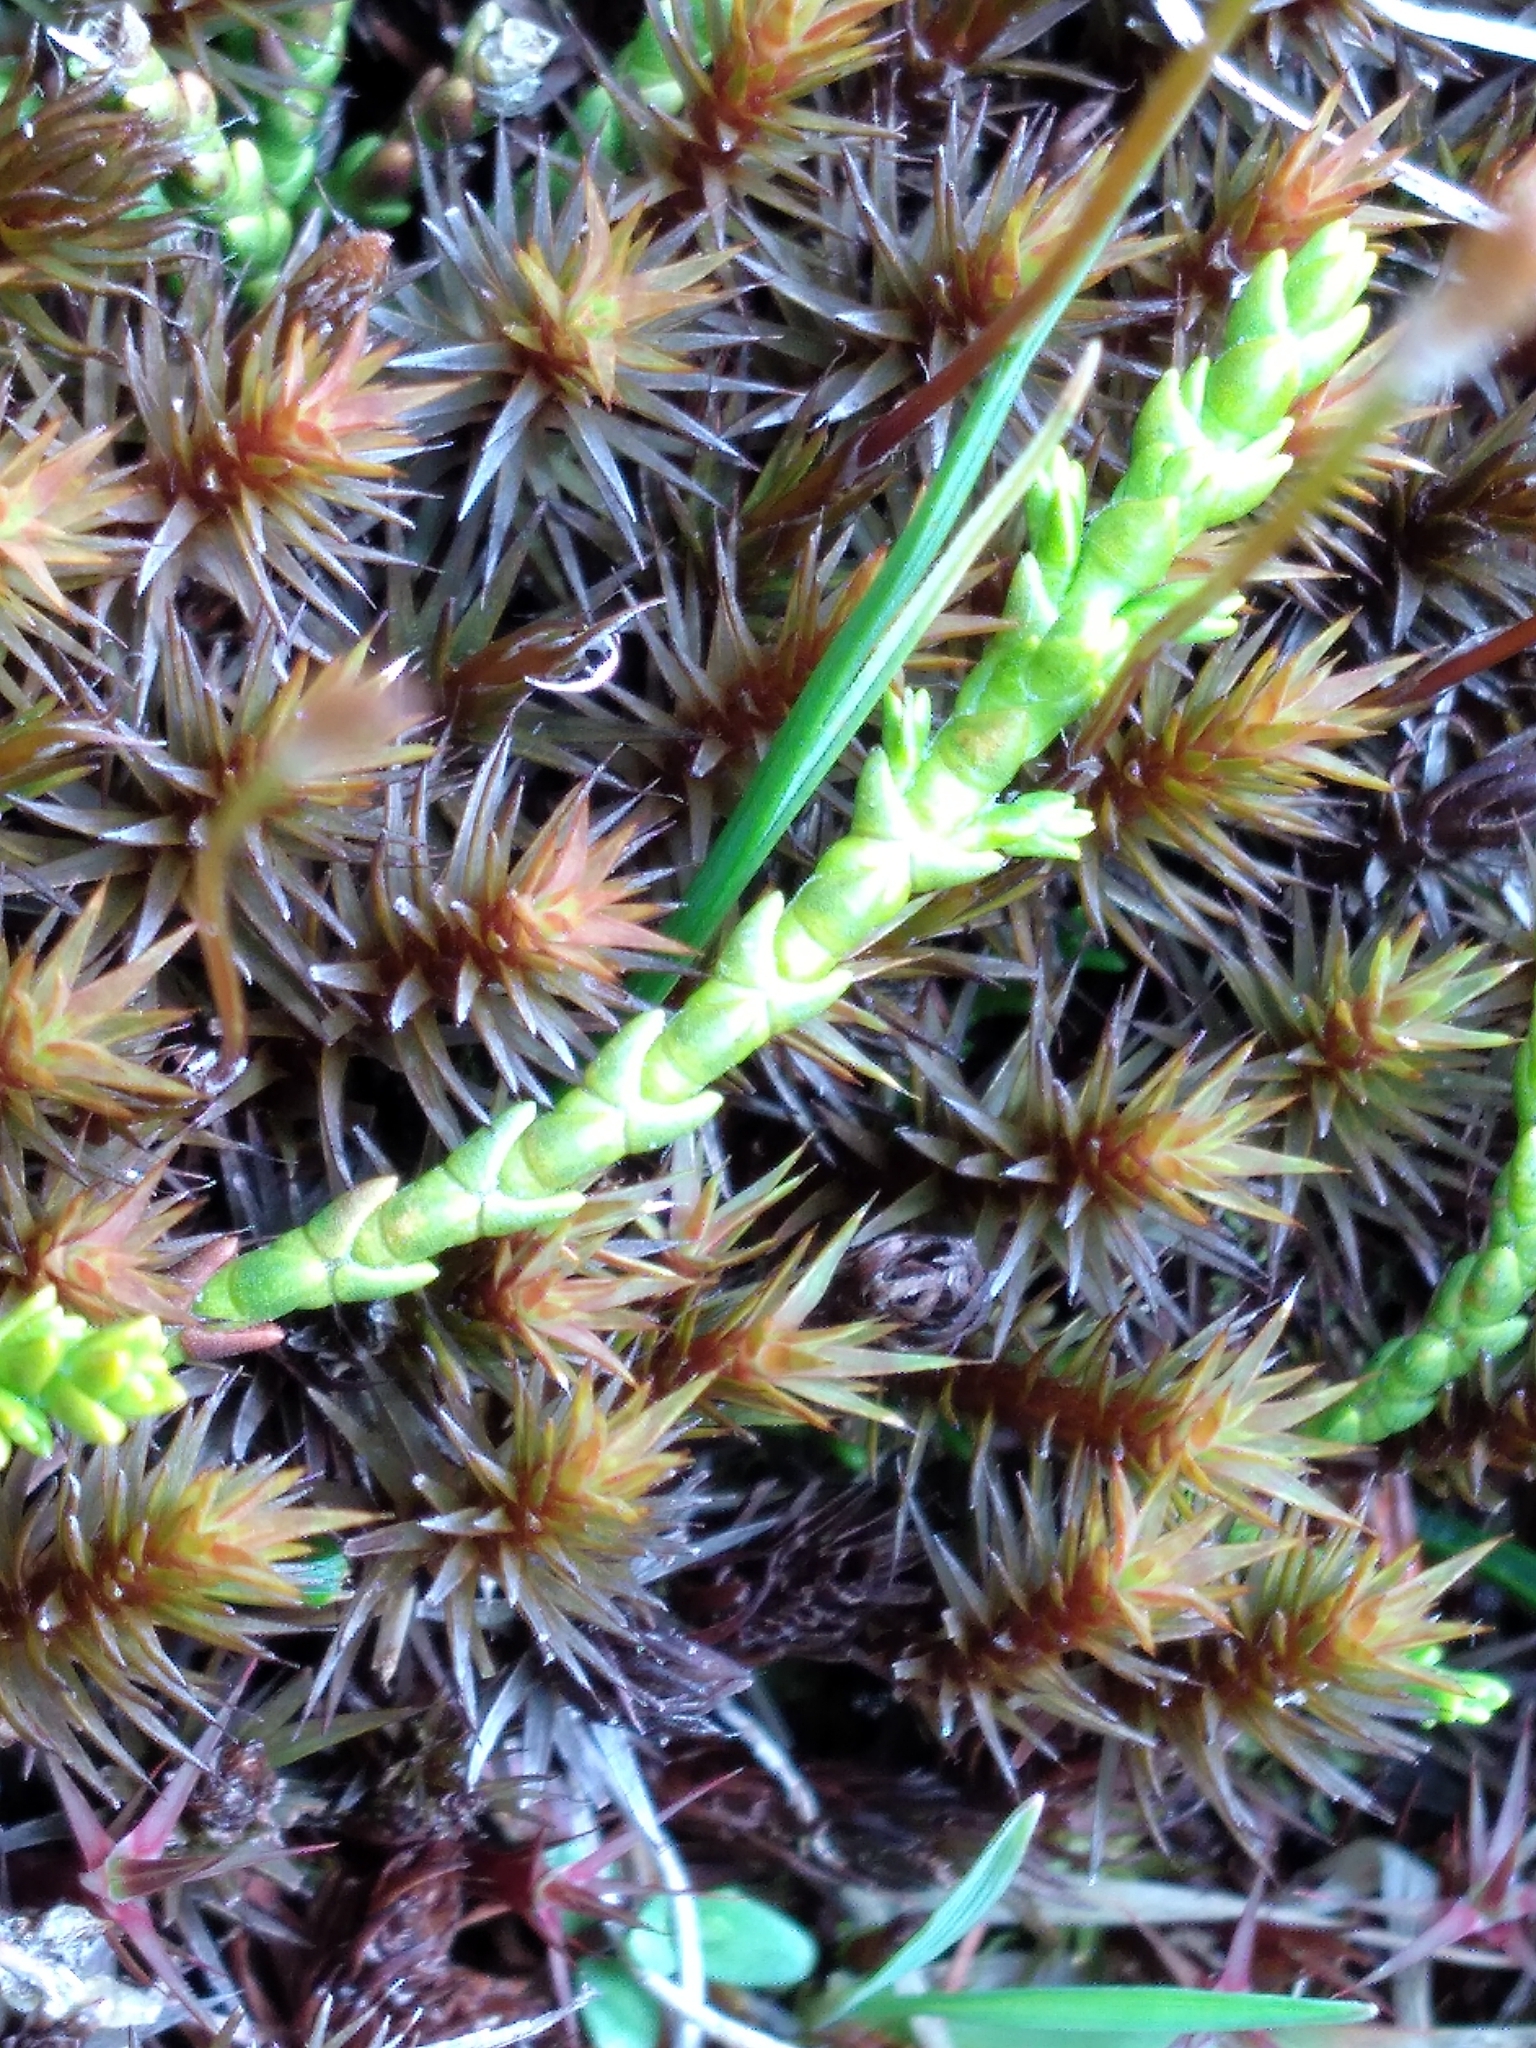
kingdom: Plantae
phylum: Tracheophyta
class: Magnoliopsida
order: Lamiales
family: Plantaginaceae
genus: Veronica
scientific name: Veronica propinqua
